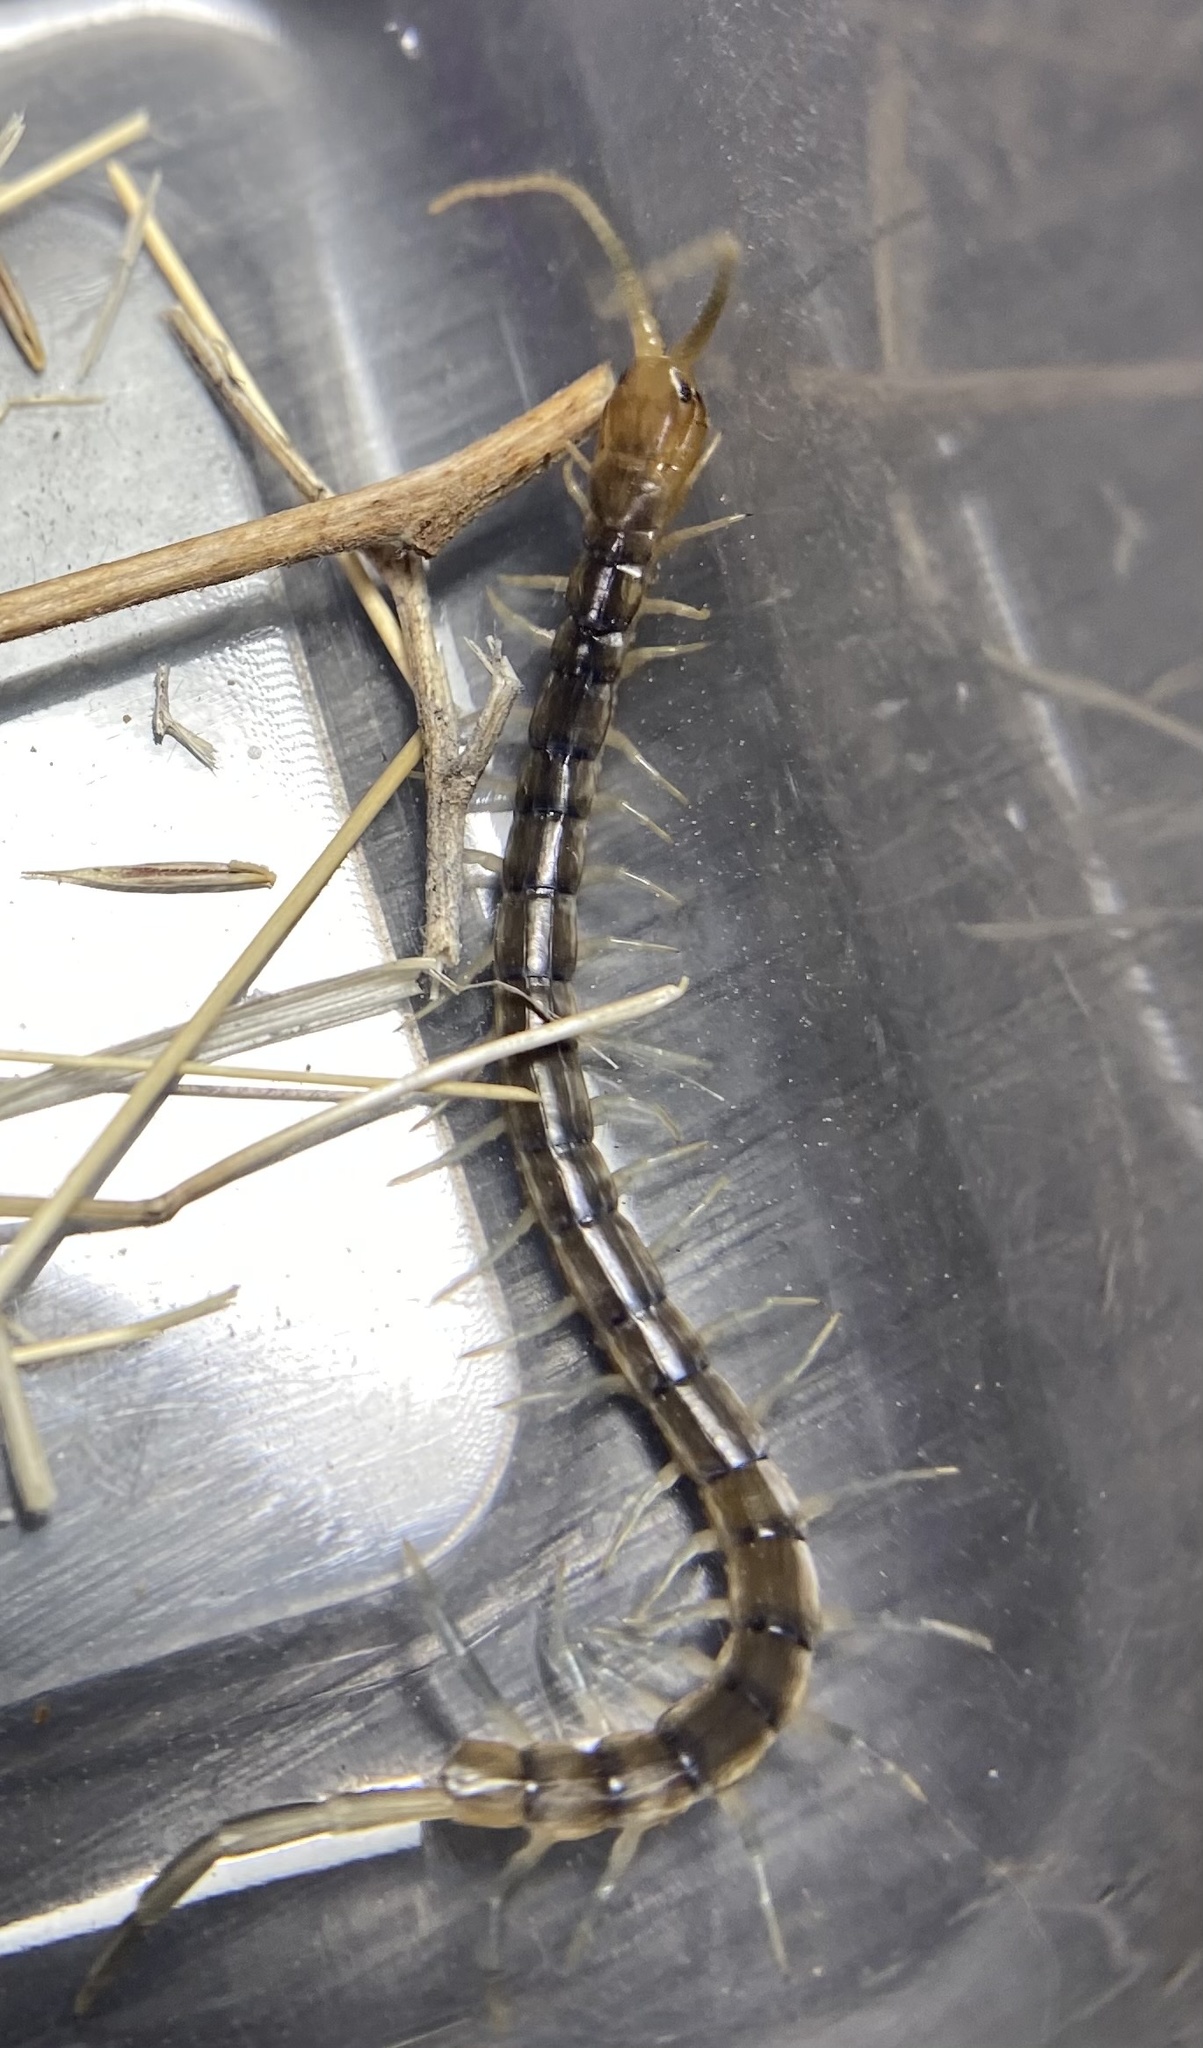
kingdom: Animalia
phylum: Arthropoda
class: Chilopoda
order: Scolopendromorpha
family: Scolopendridae
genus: Scolopendra
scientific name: Scolopendra polymorpha
